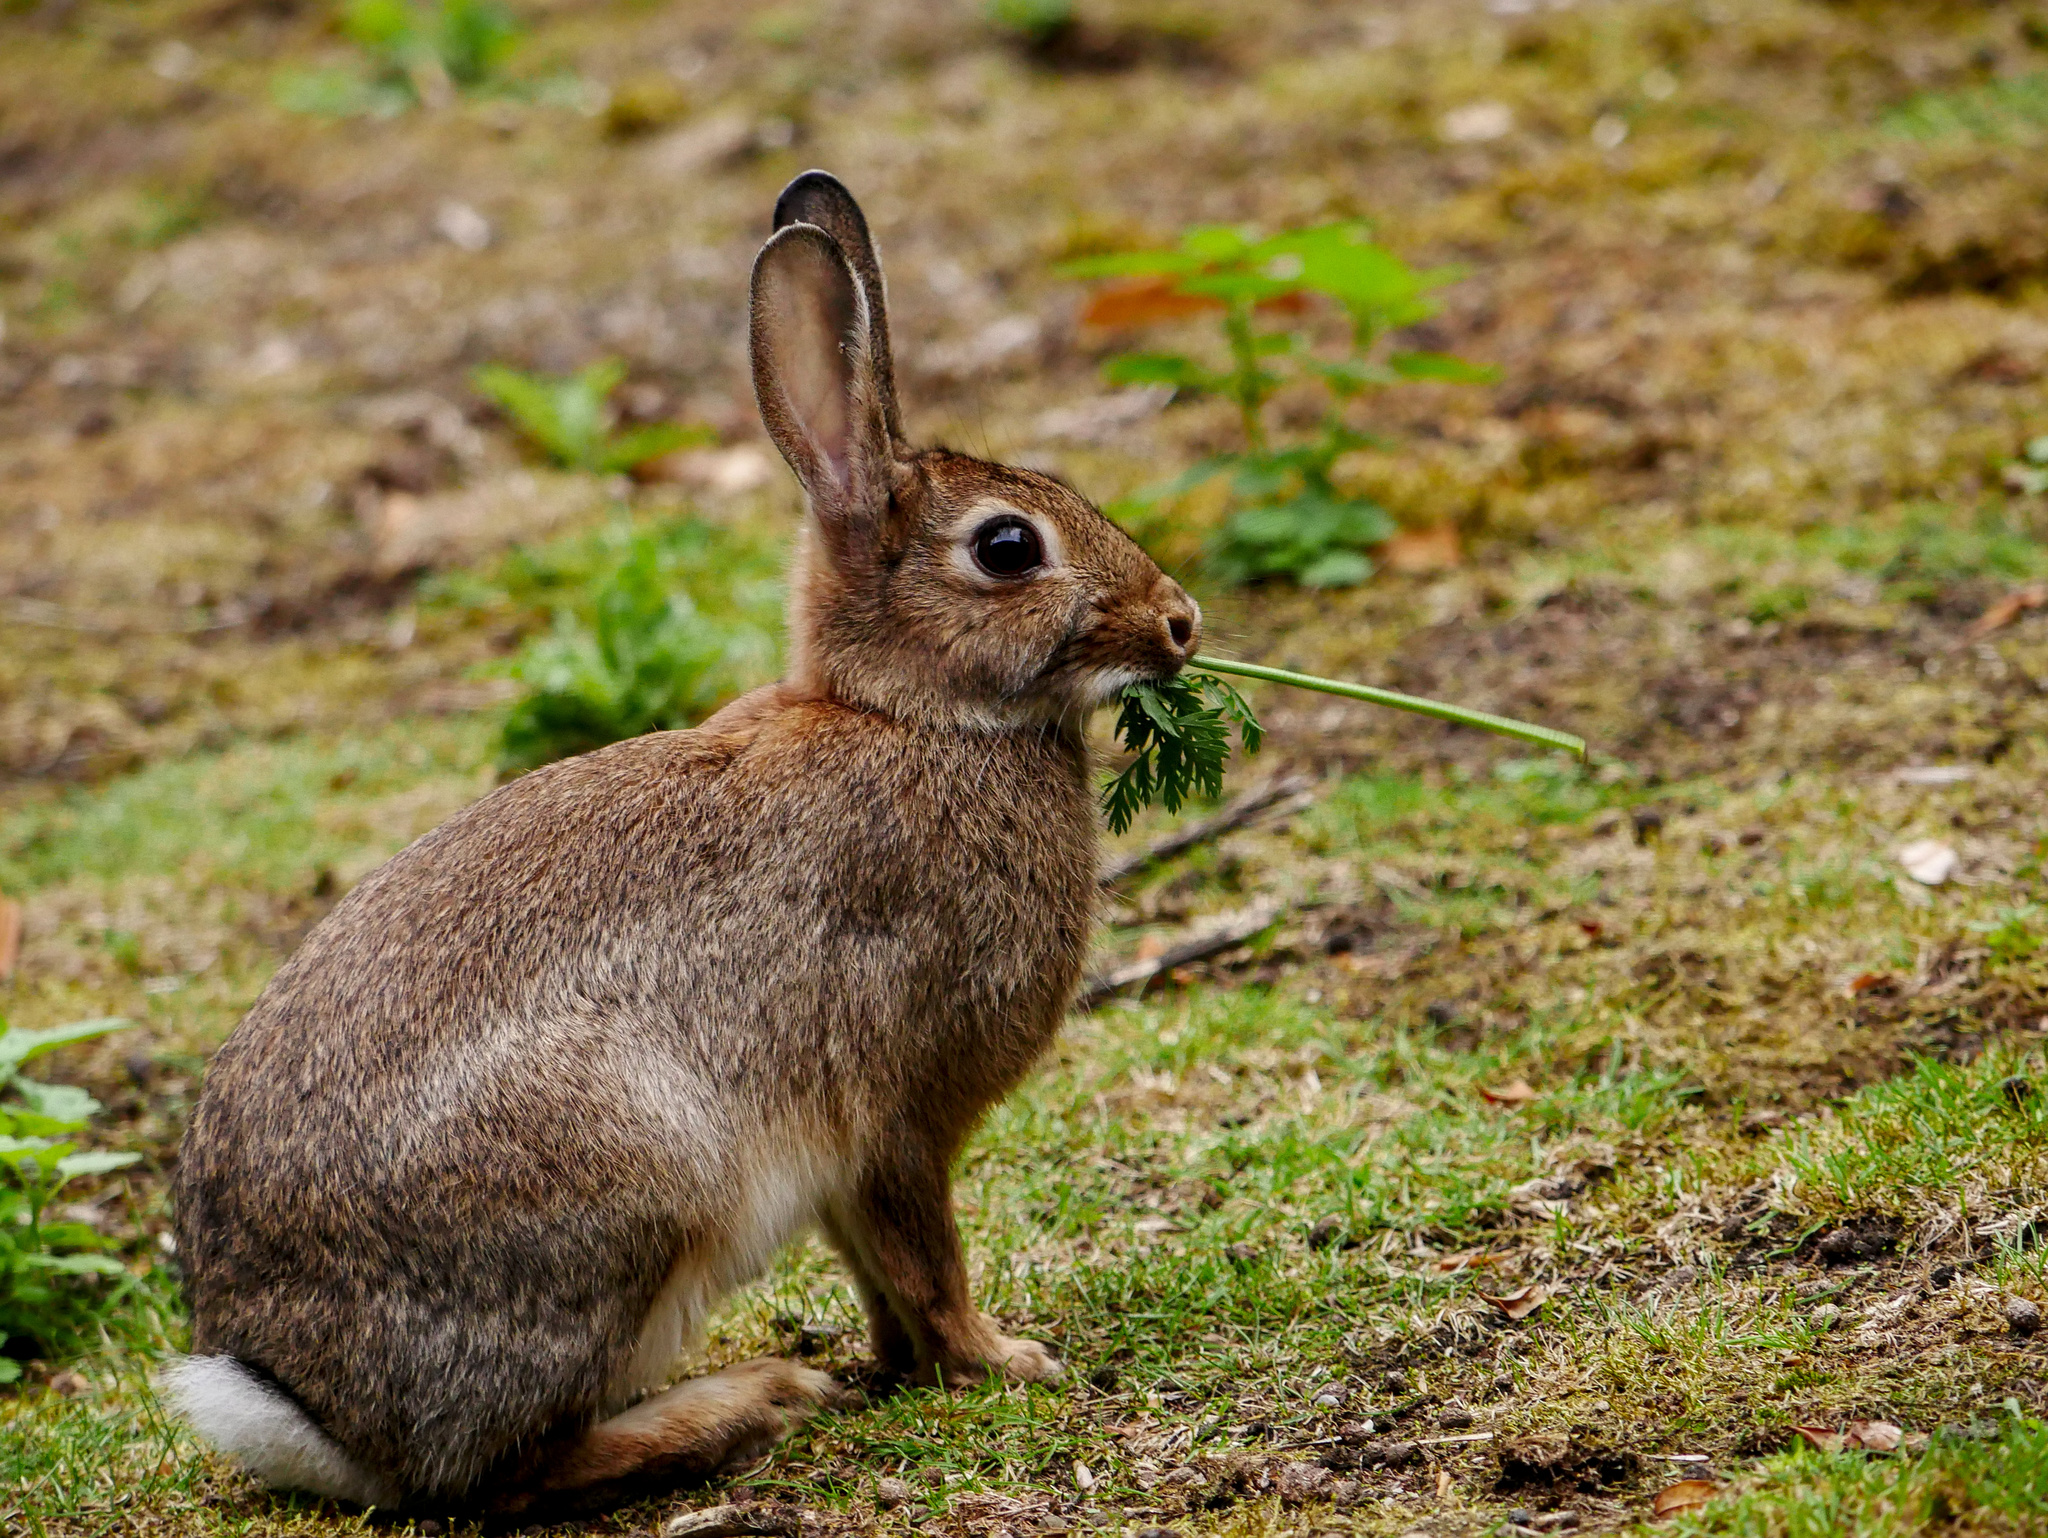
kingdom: Animalia
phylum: Chordata
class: Mammalia
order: Lagomorpha
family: Leporidae
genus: Oryctolagus
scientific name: Oryctolagus cuniculus
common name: European rabbit
